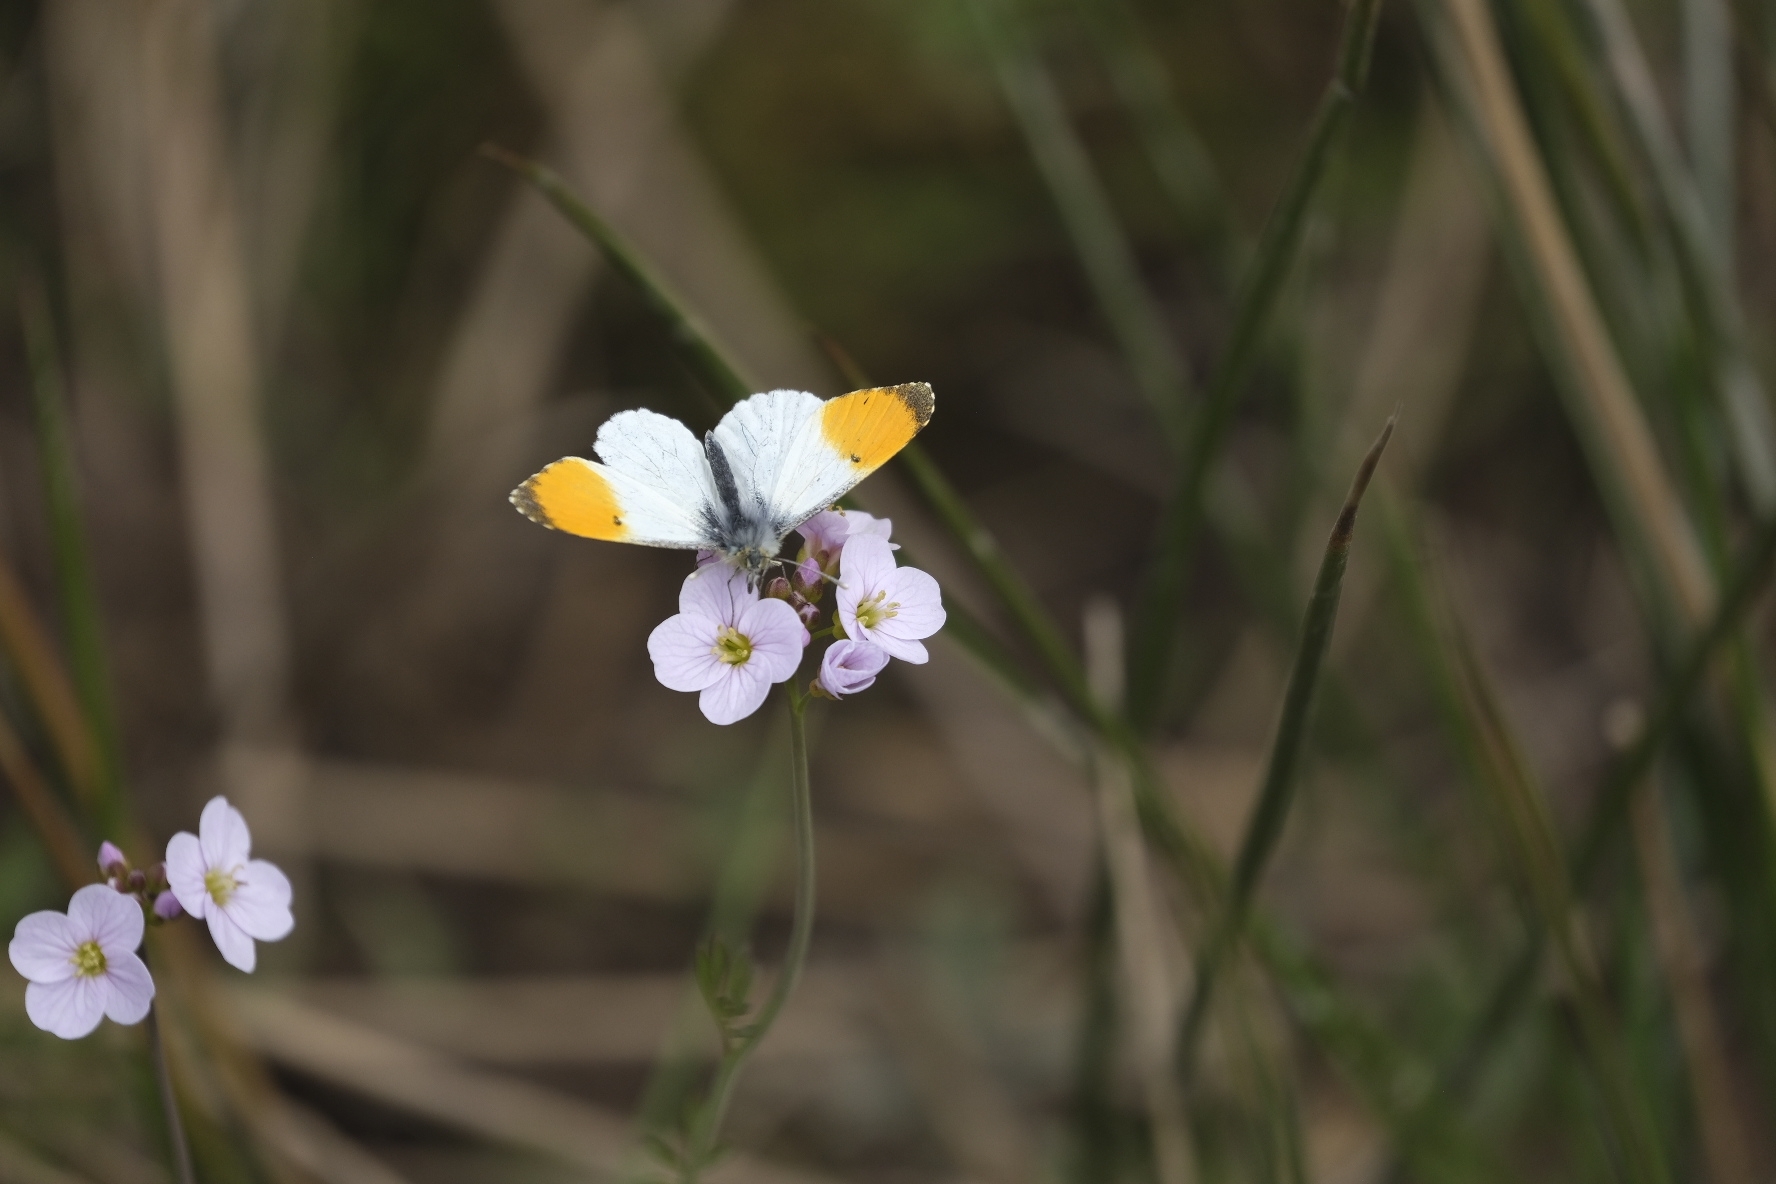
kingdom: Animalia
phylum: Arthropoda
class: Insecta
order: Lepidoptera
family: Pieridae
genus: Anthocharis
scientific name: Anthocharis cardamines
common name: Orange-tip
